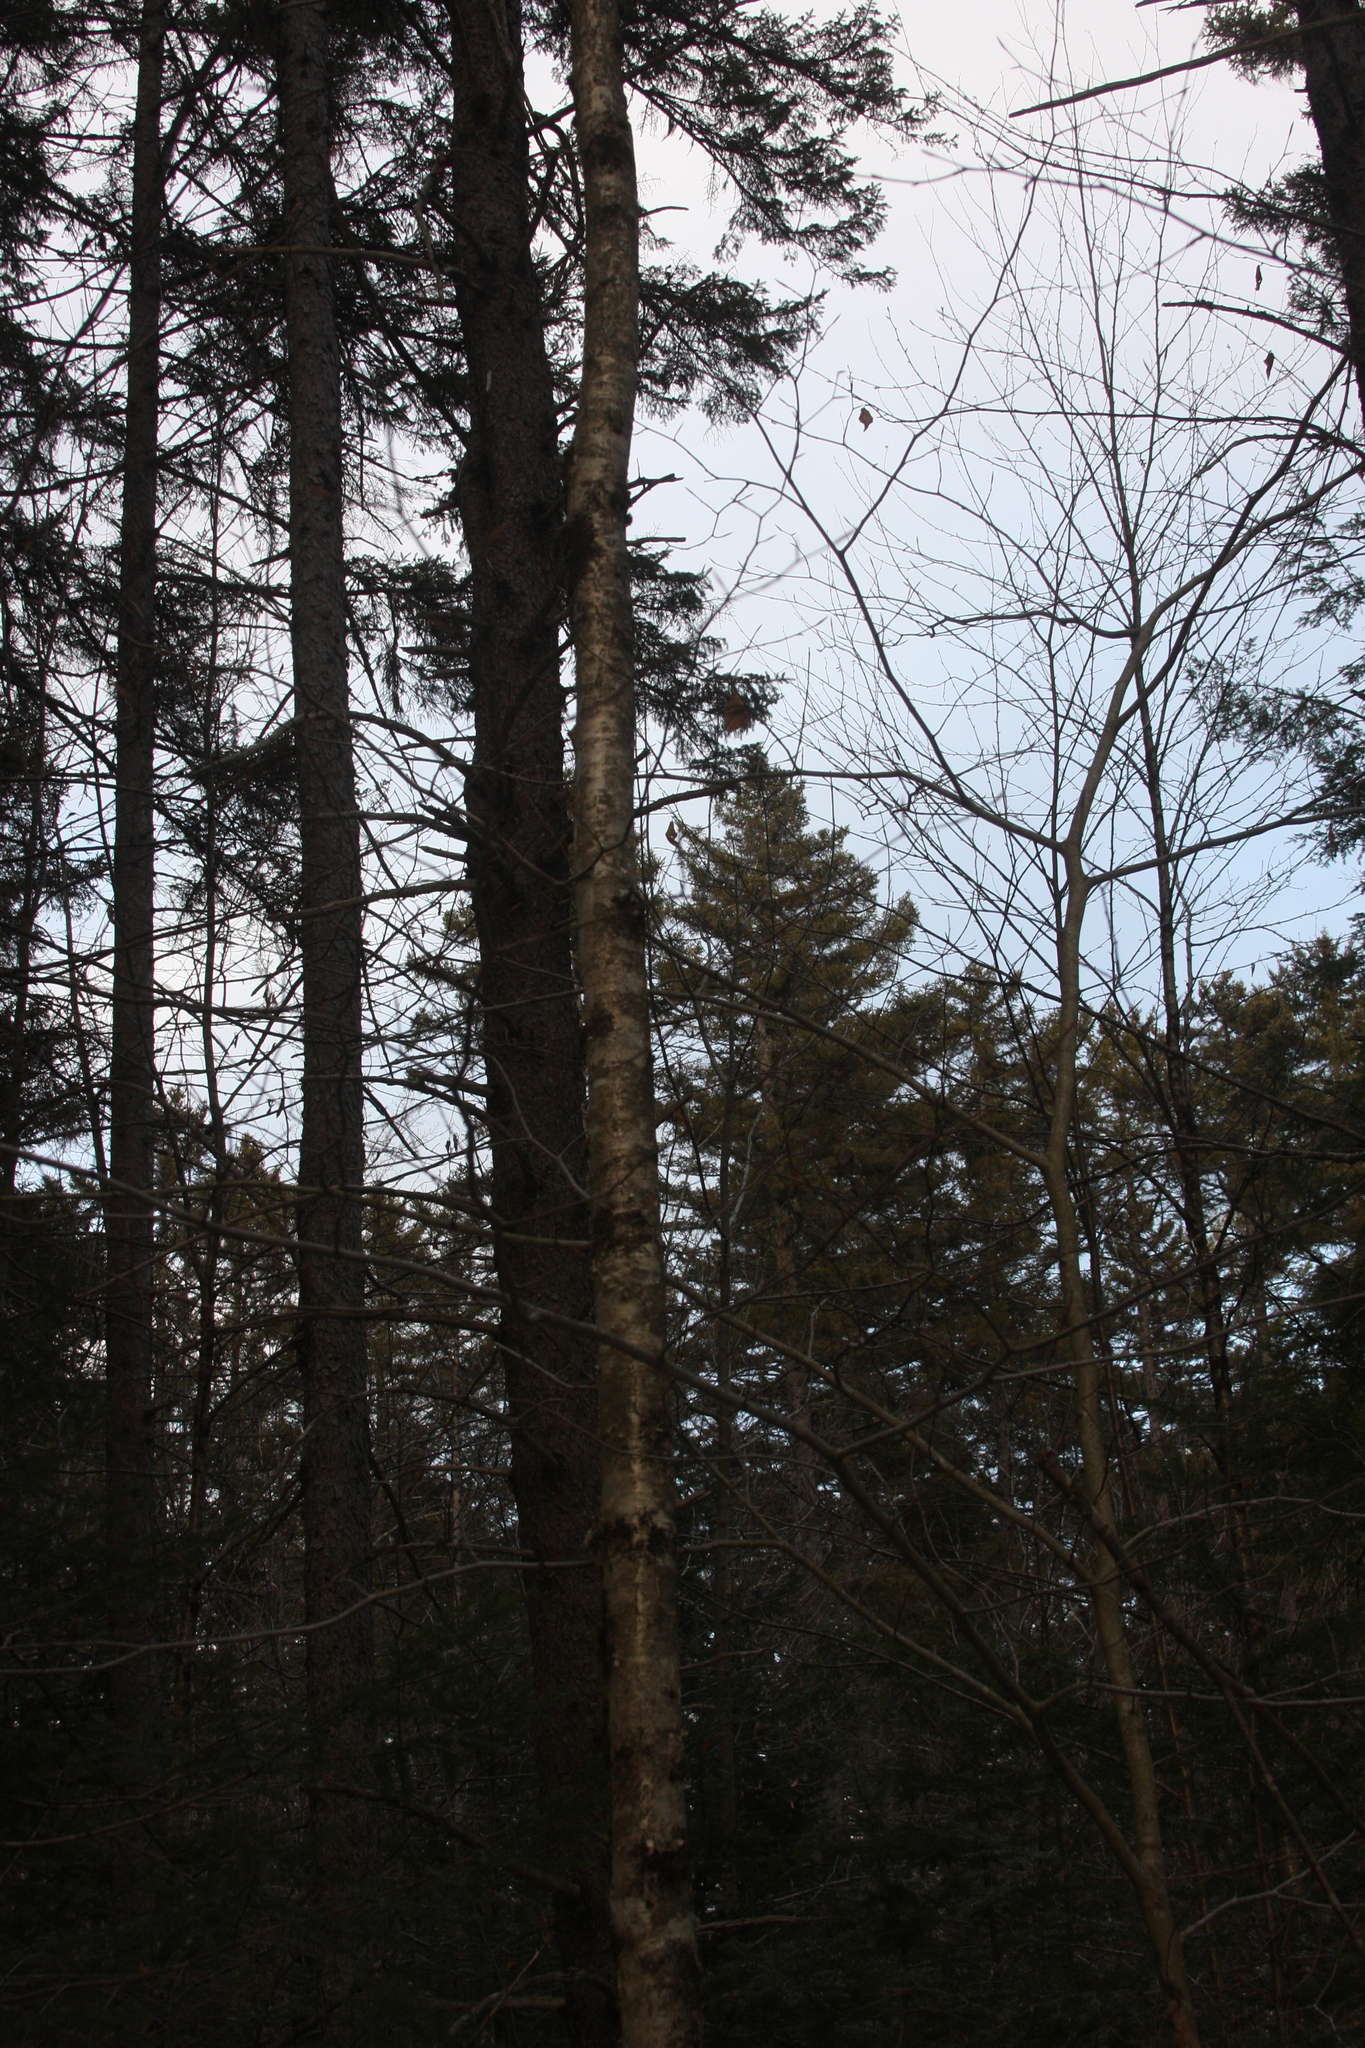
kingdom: Plantae
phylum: Tracheophyta
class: Magnoliopsida
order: Fagales
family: Betulaceae
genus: Betula
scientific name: Betula alleghaniensis
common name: Yellow birch
